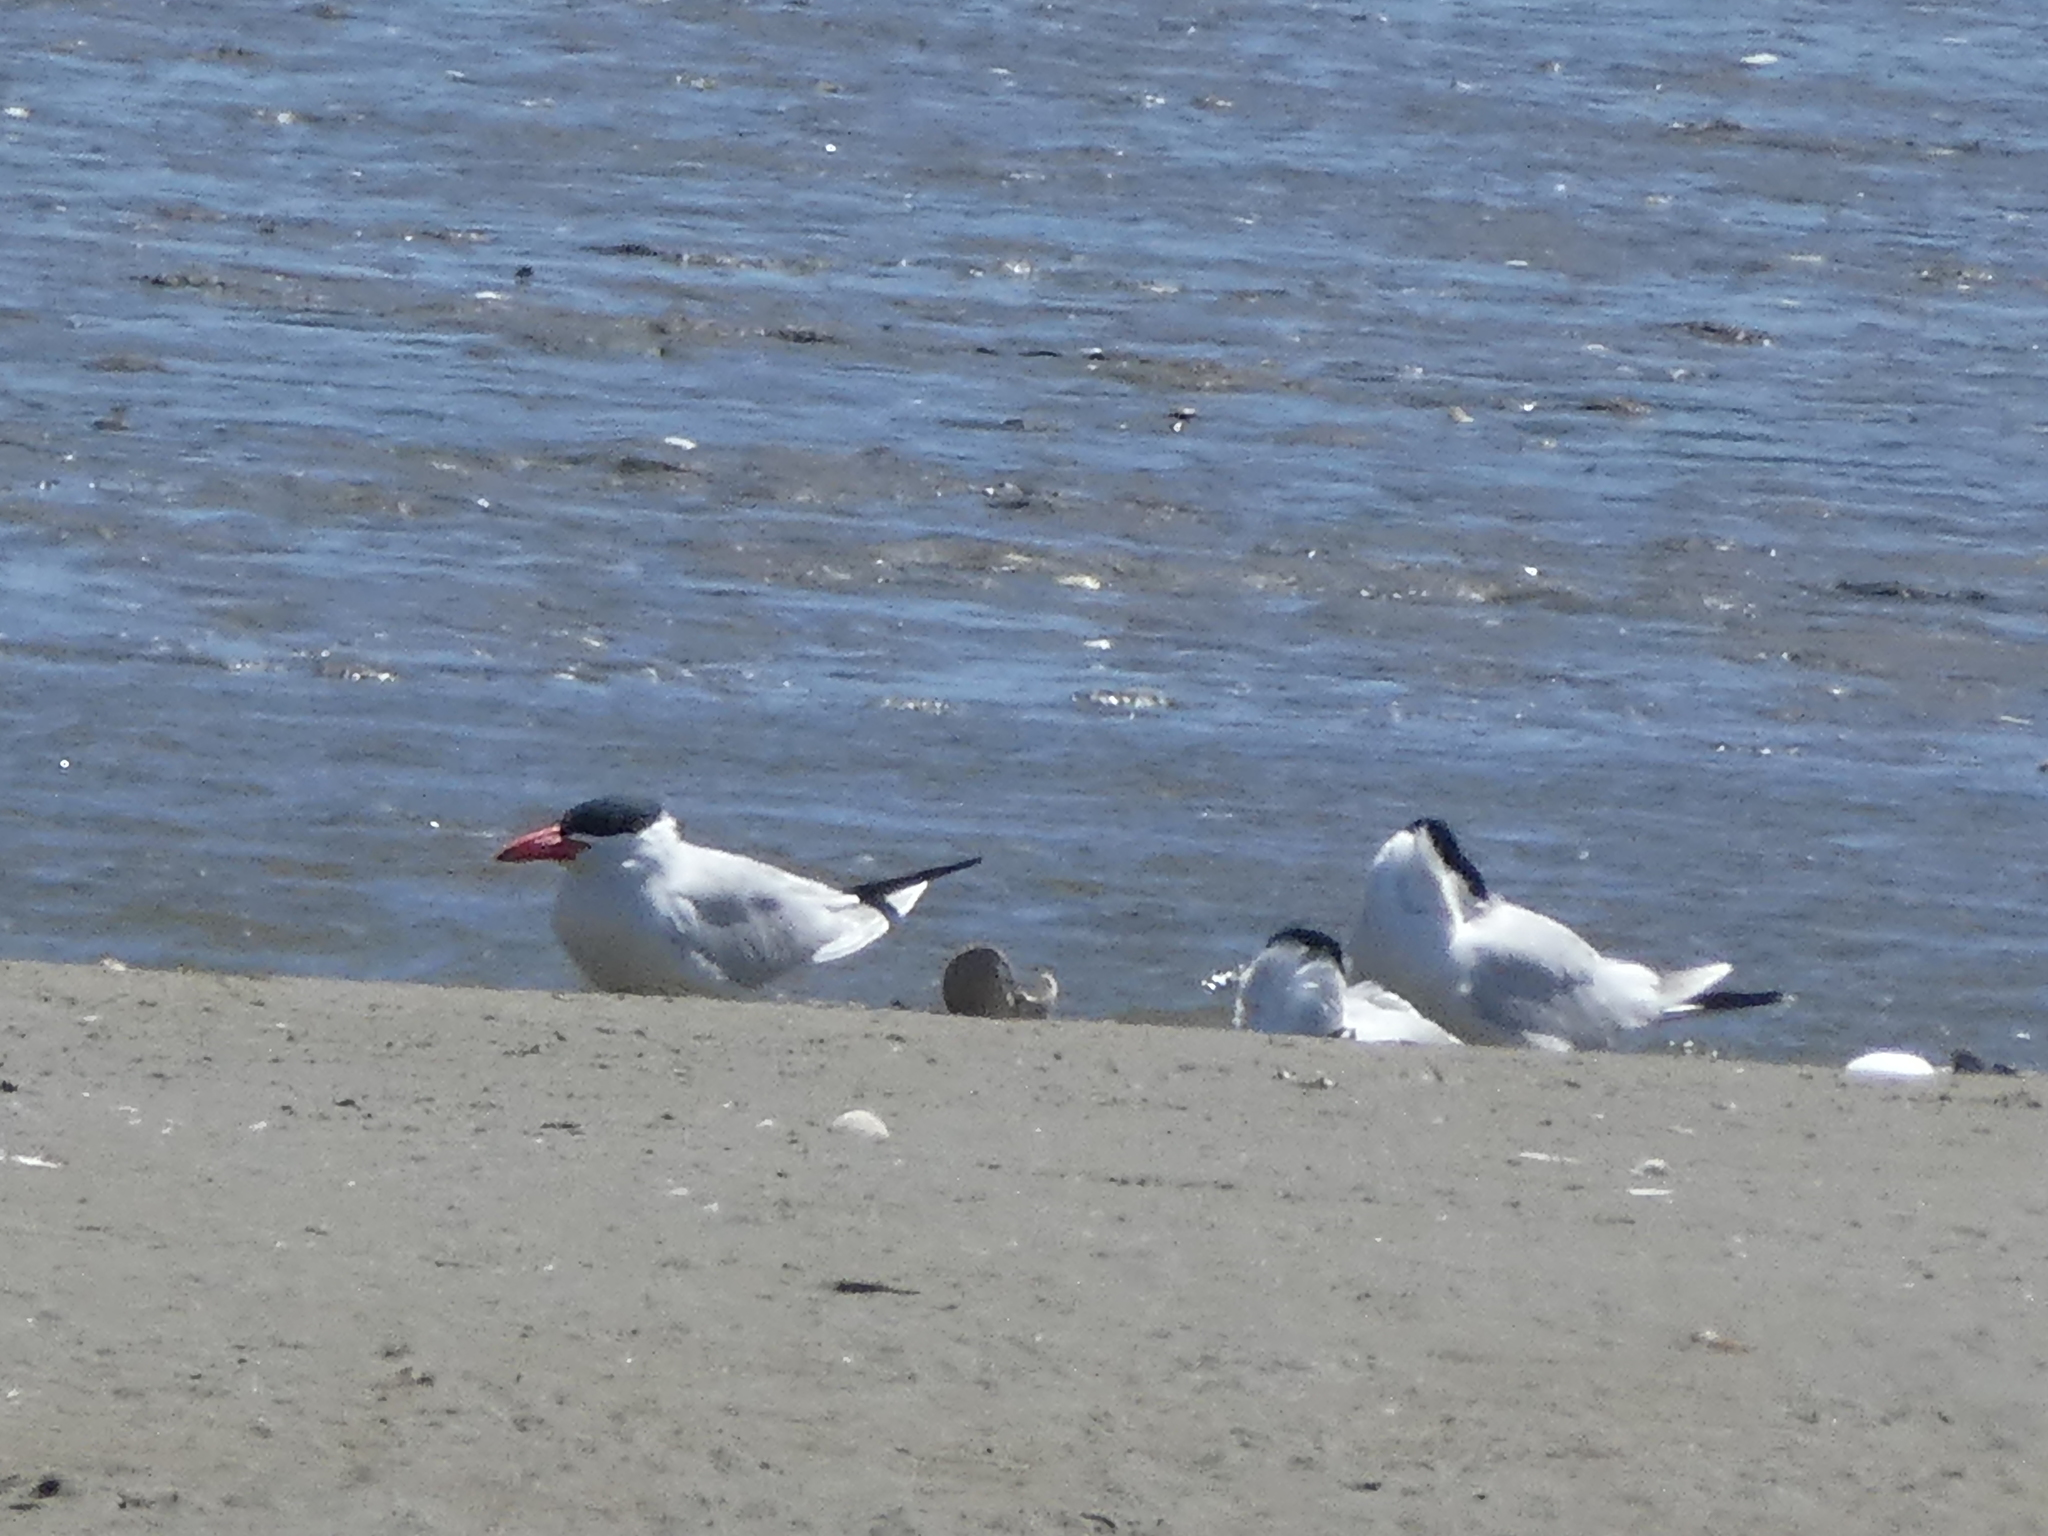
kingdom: Animalia
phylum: Chordata
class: Aves
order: Charadriiformes
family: Laridae
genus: Hydroprogne
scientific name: Hydroprogne caspia
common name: Caspian tern
